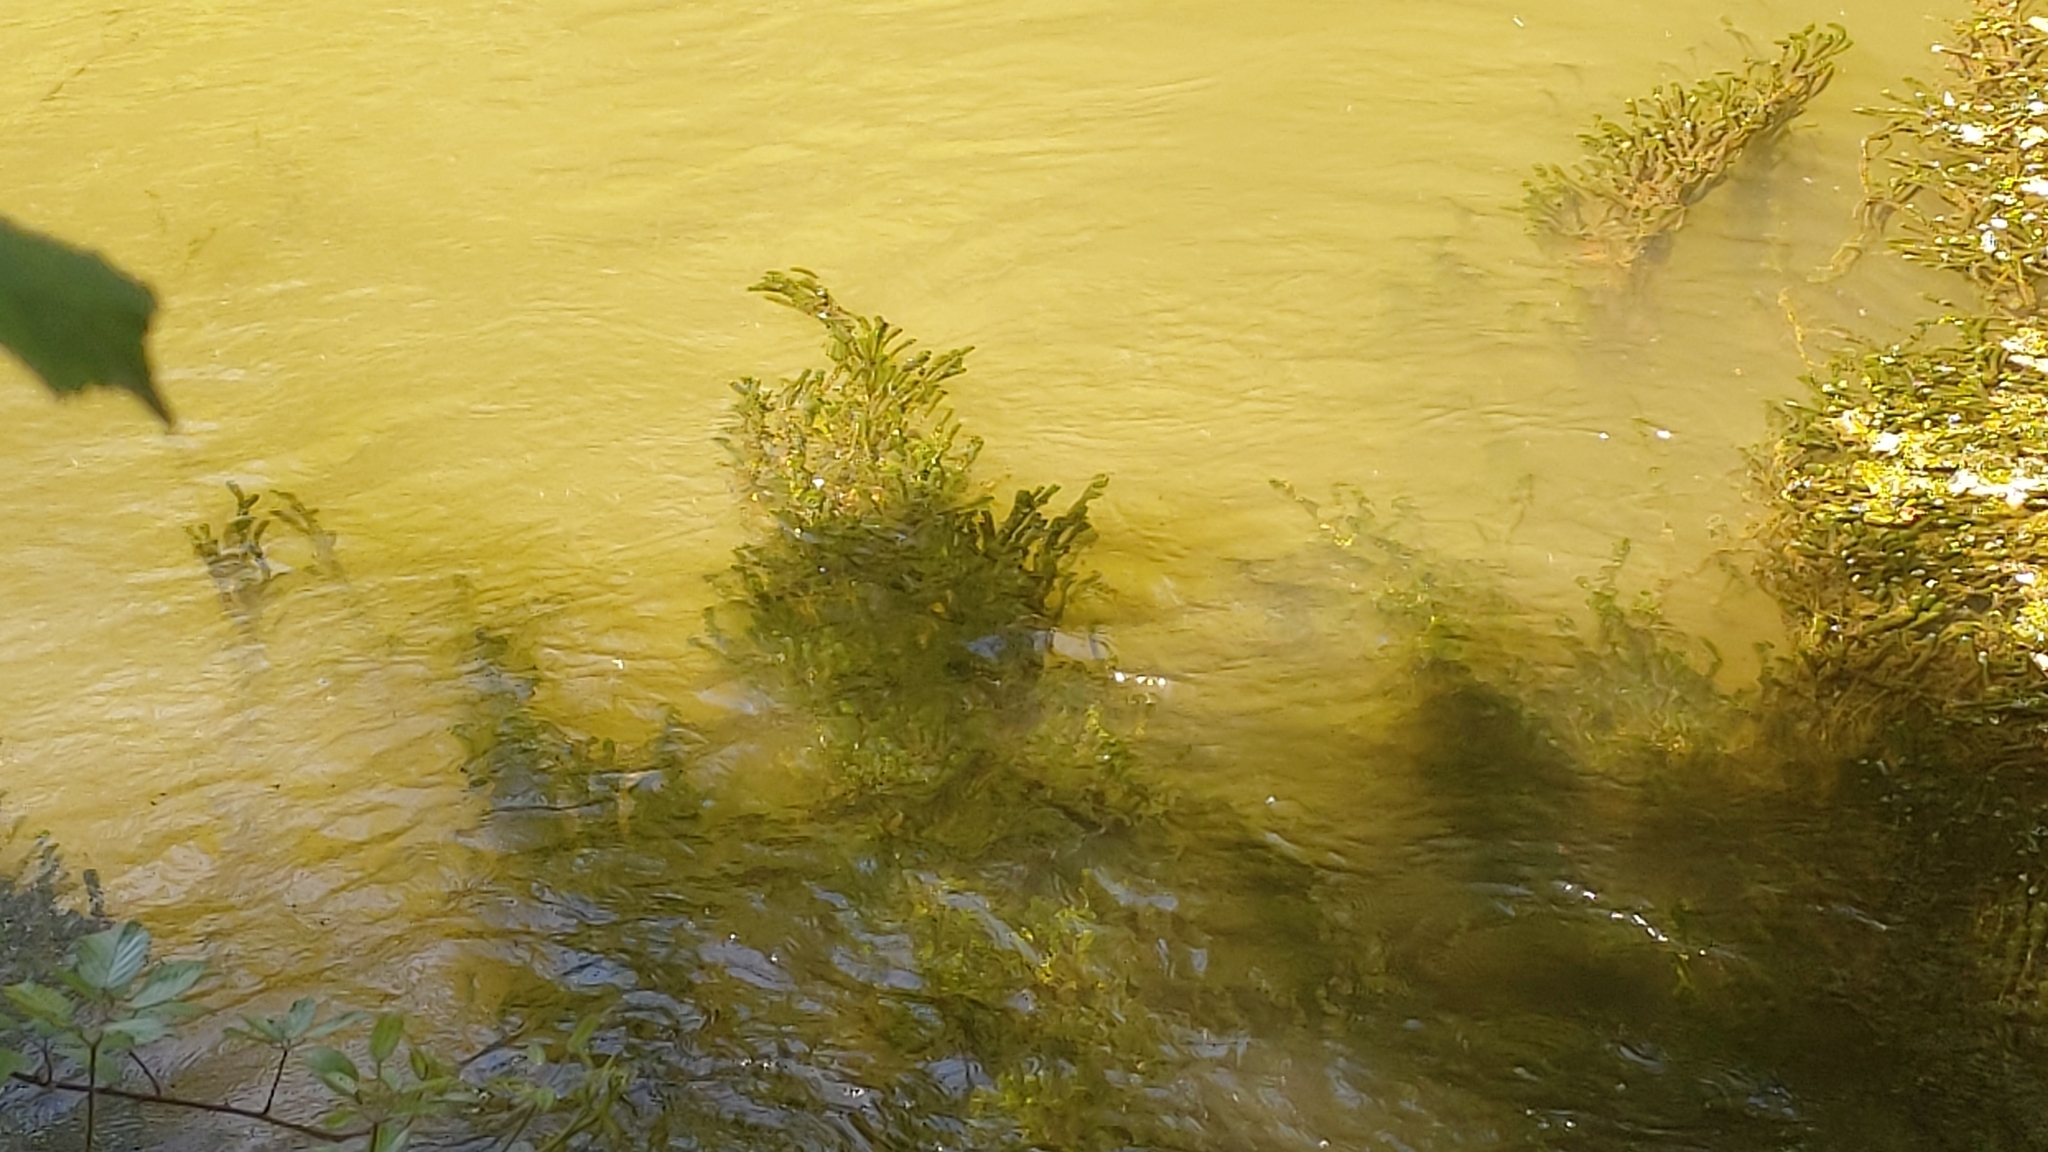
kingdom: Plantae
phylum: Tracheophyta
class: Liliopsida
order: Alismatales
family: Hydrocharitaceae
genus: Lagarosiphon
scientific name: Lagarosiphon major
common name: Curly waterweed
